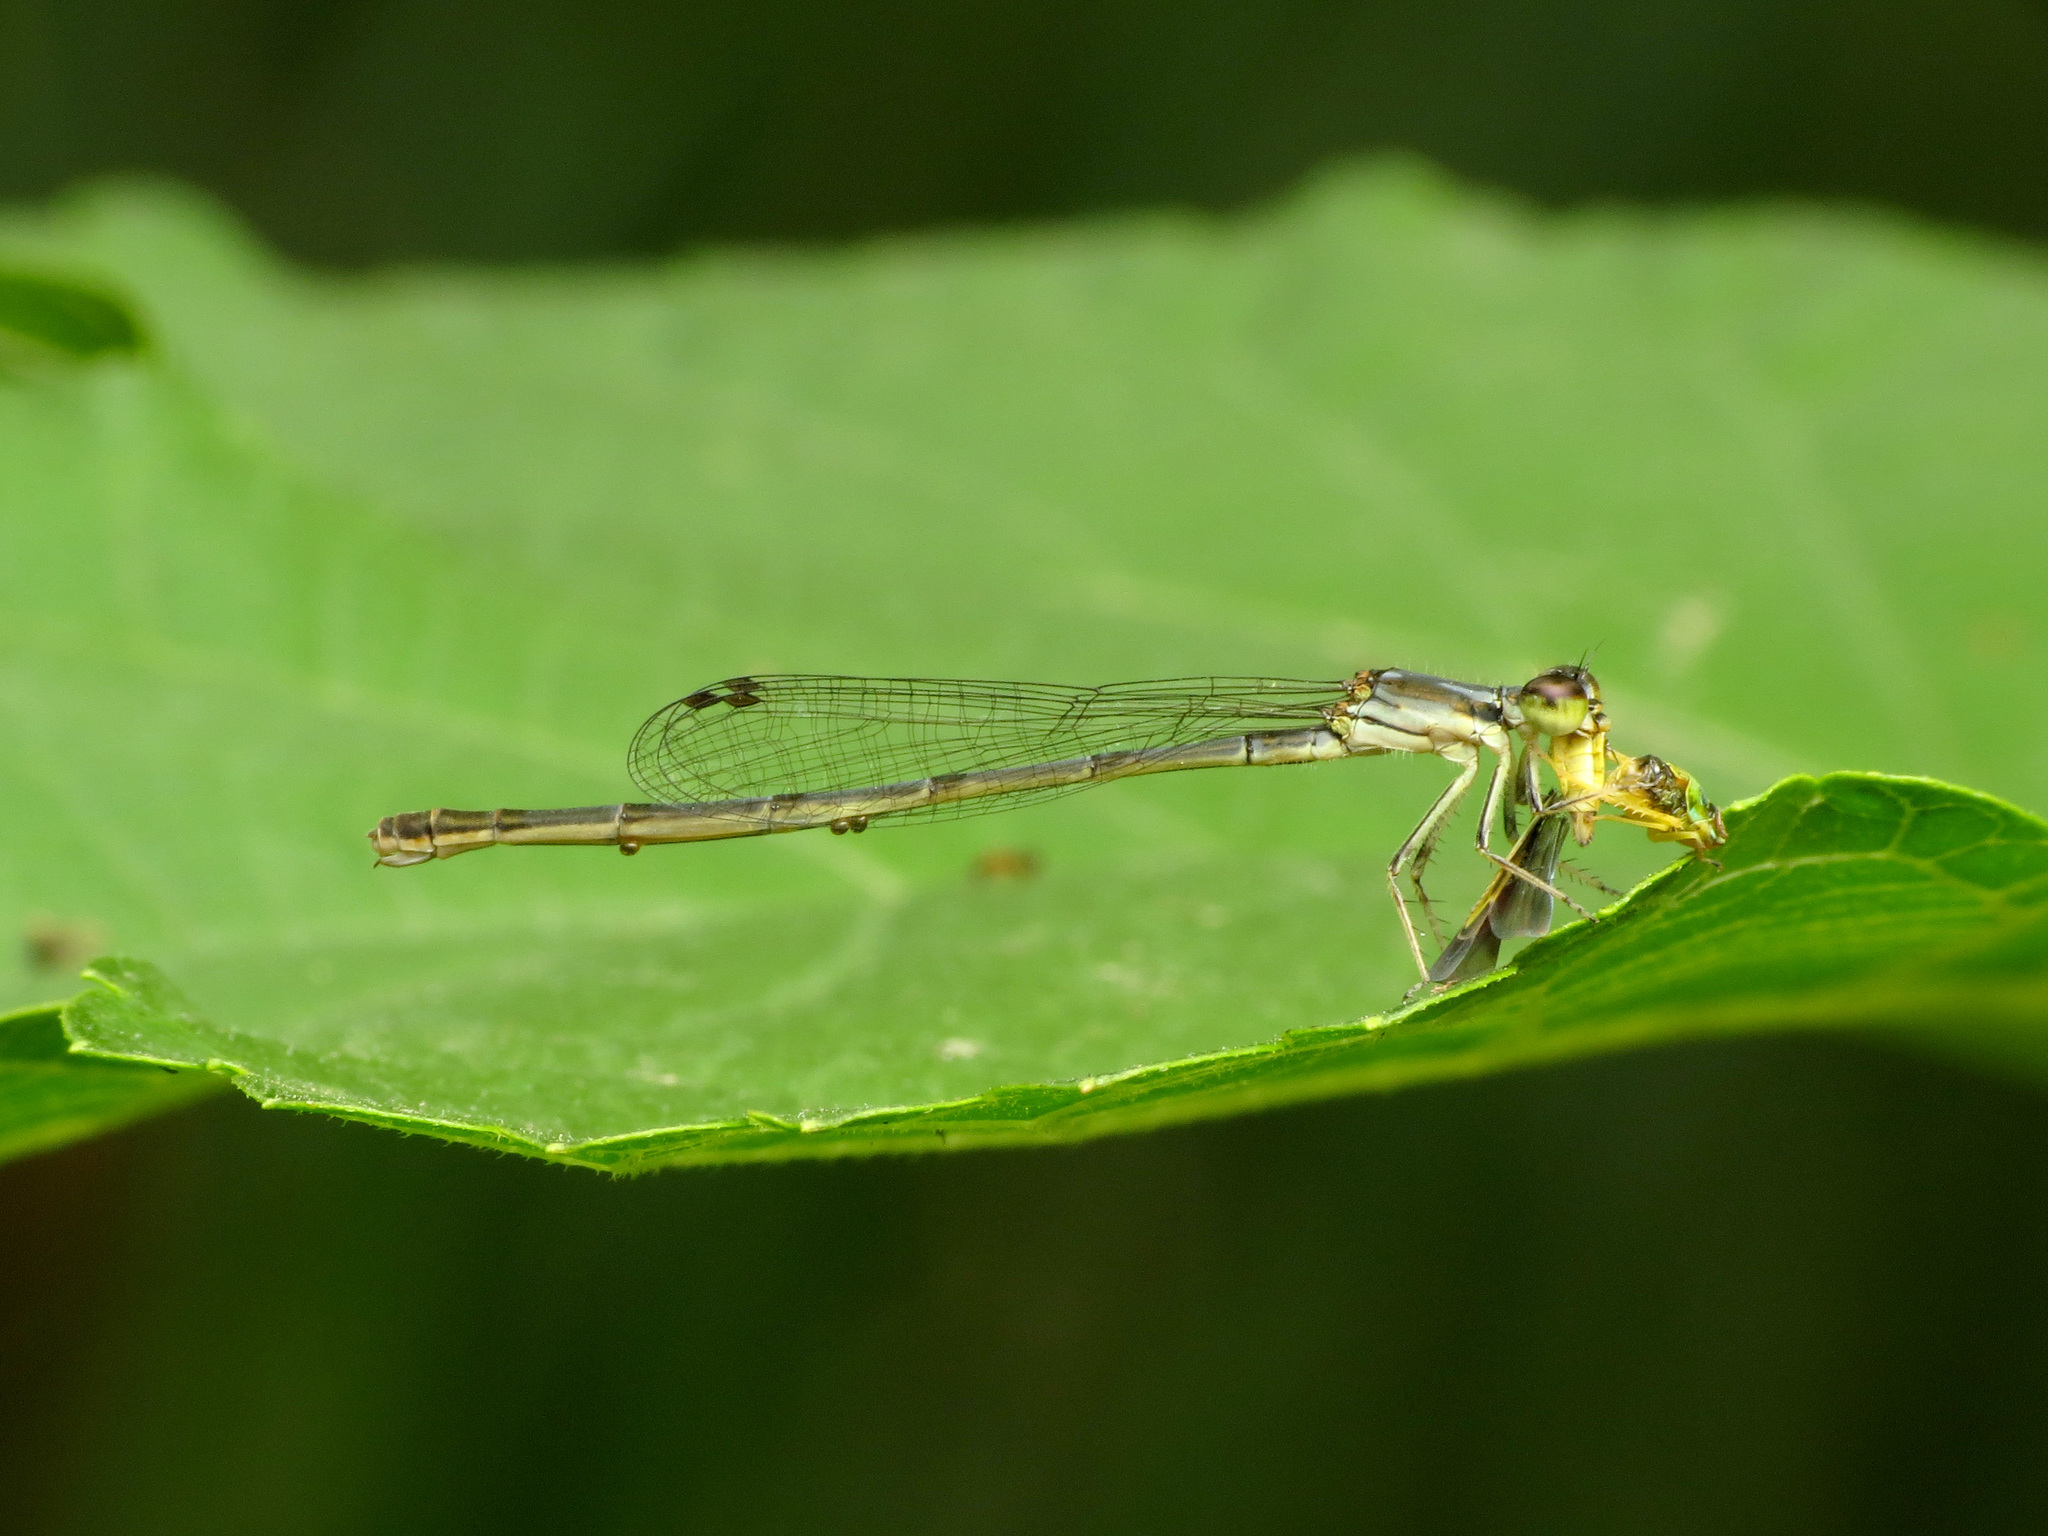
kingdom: Animalia
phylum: Arthropoda
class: Insecta
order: Odonata
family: Coenagrionidae
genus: Ischnura
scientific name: Ischnura posita
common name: Fragile forktail
